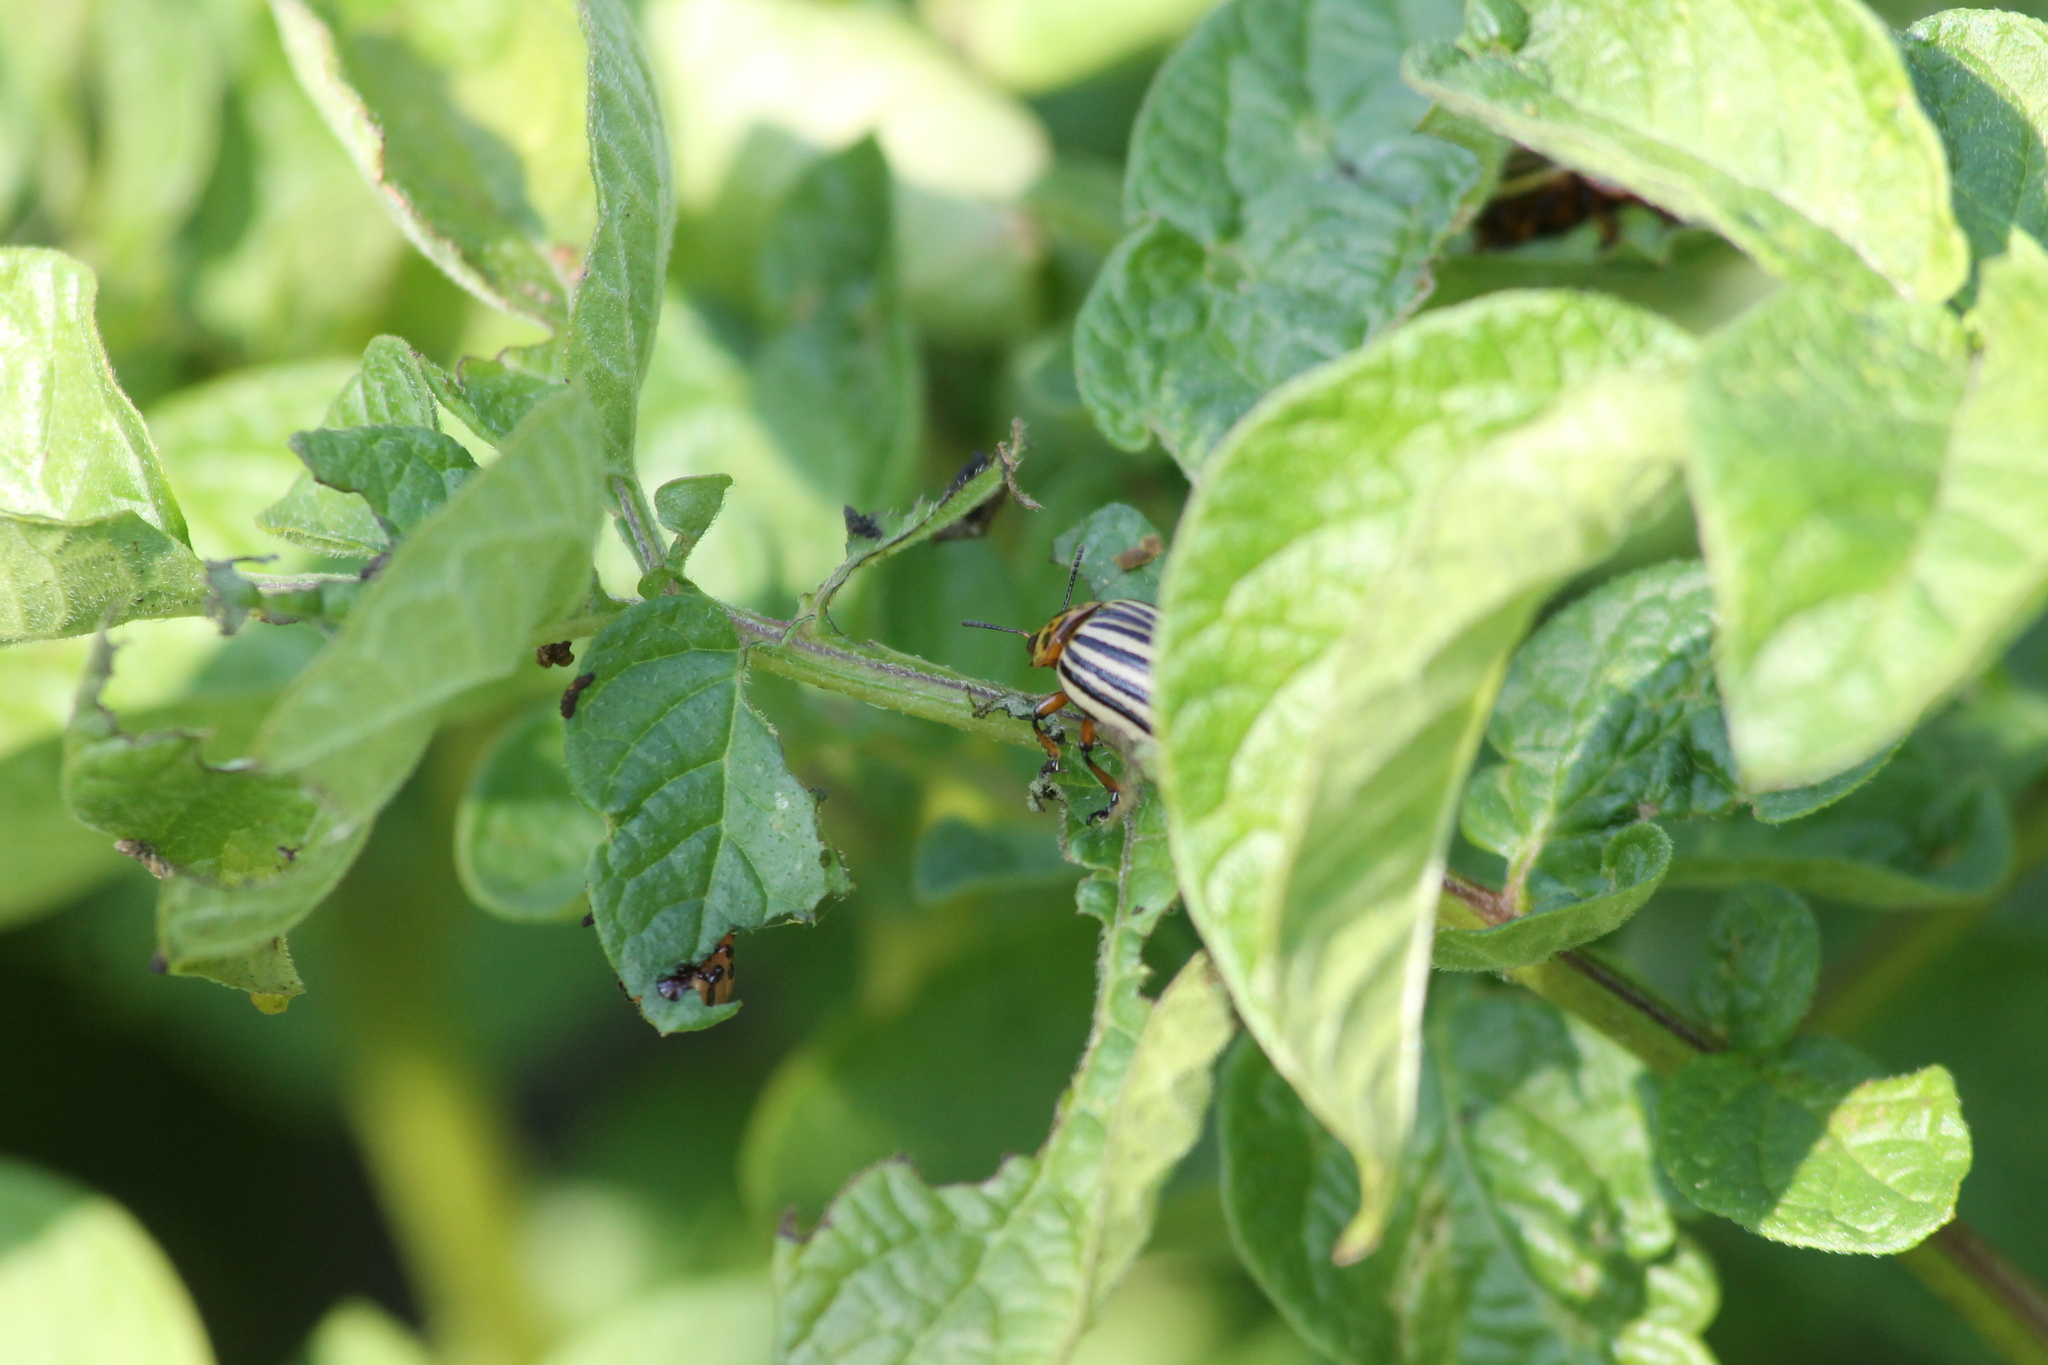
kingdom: Animalia
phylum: Arthropoda
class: Insecta
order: Coleoptera
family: Chrysomelidae
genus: Leptinotarsa
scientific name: Leptinotarsa decemlineata
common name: Colorado potato beetle
